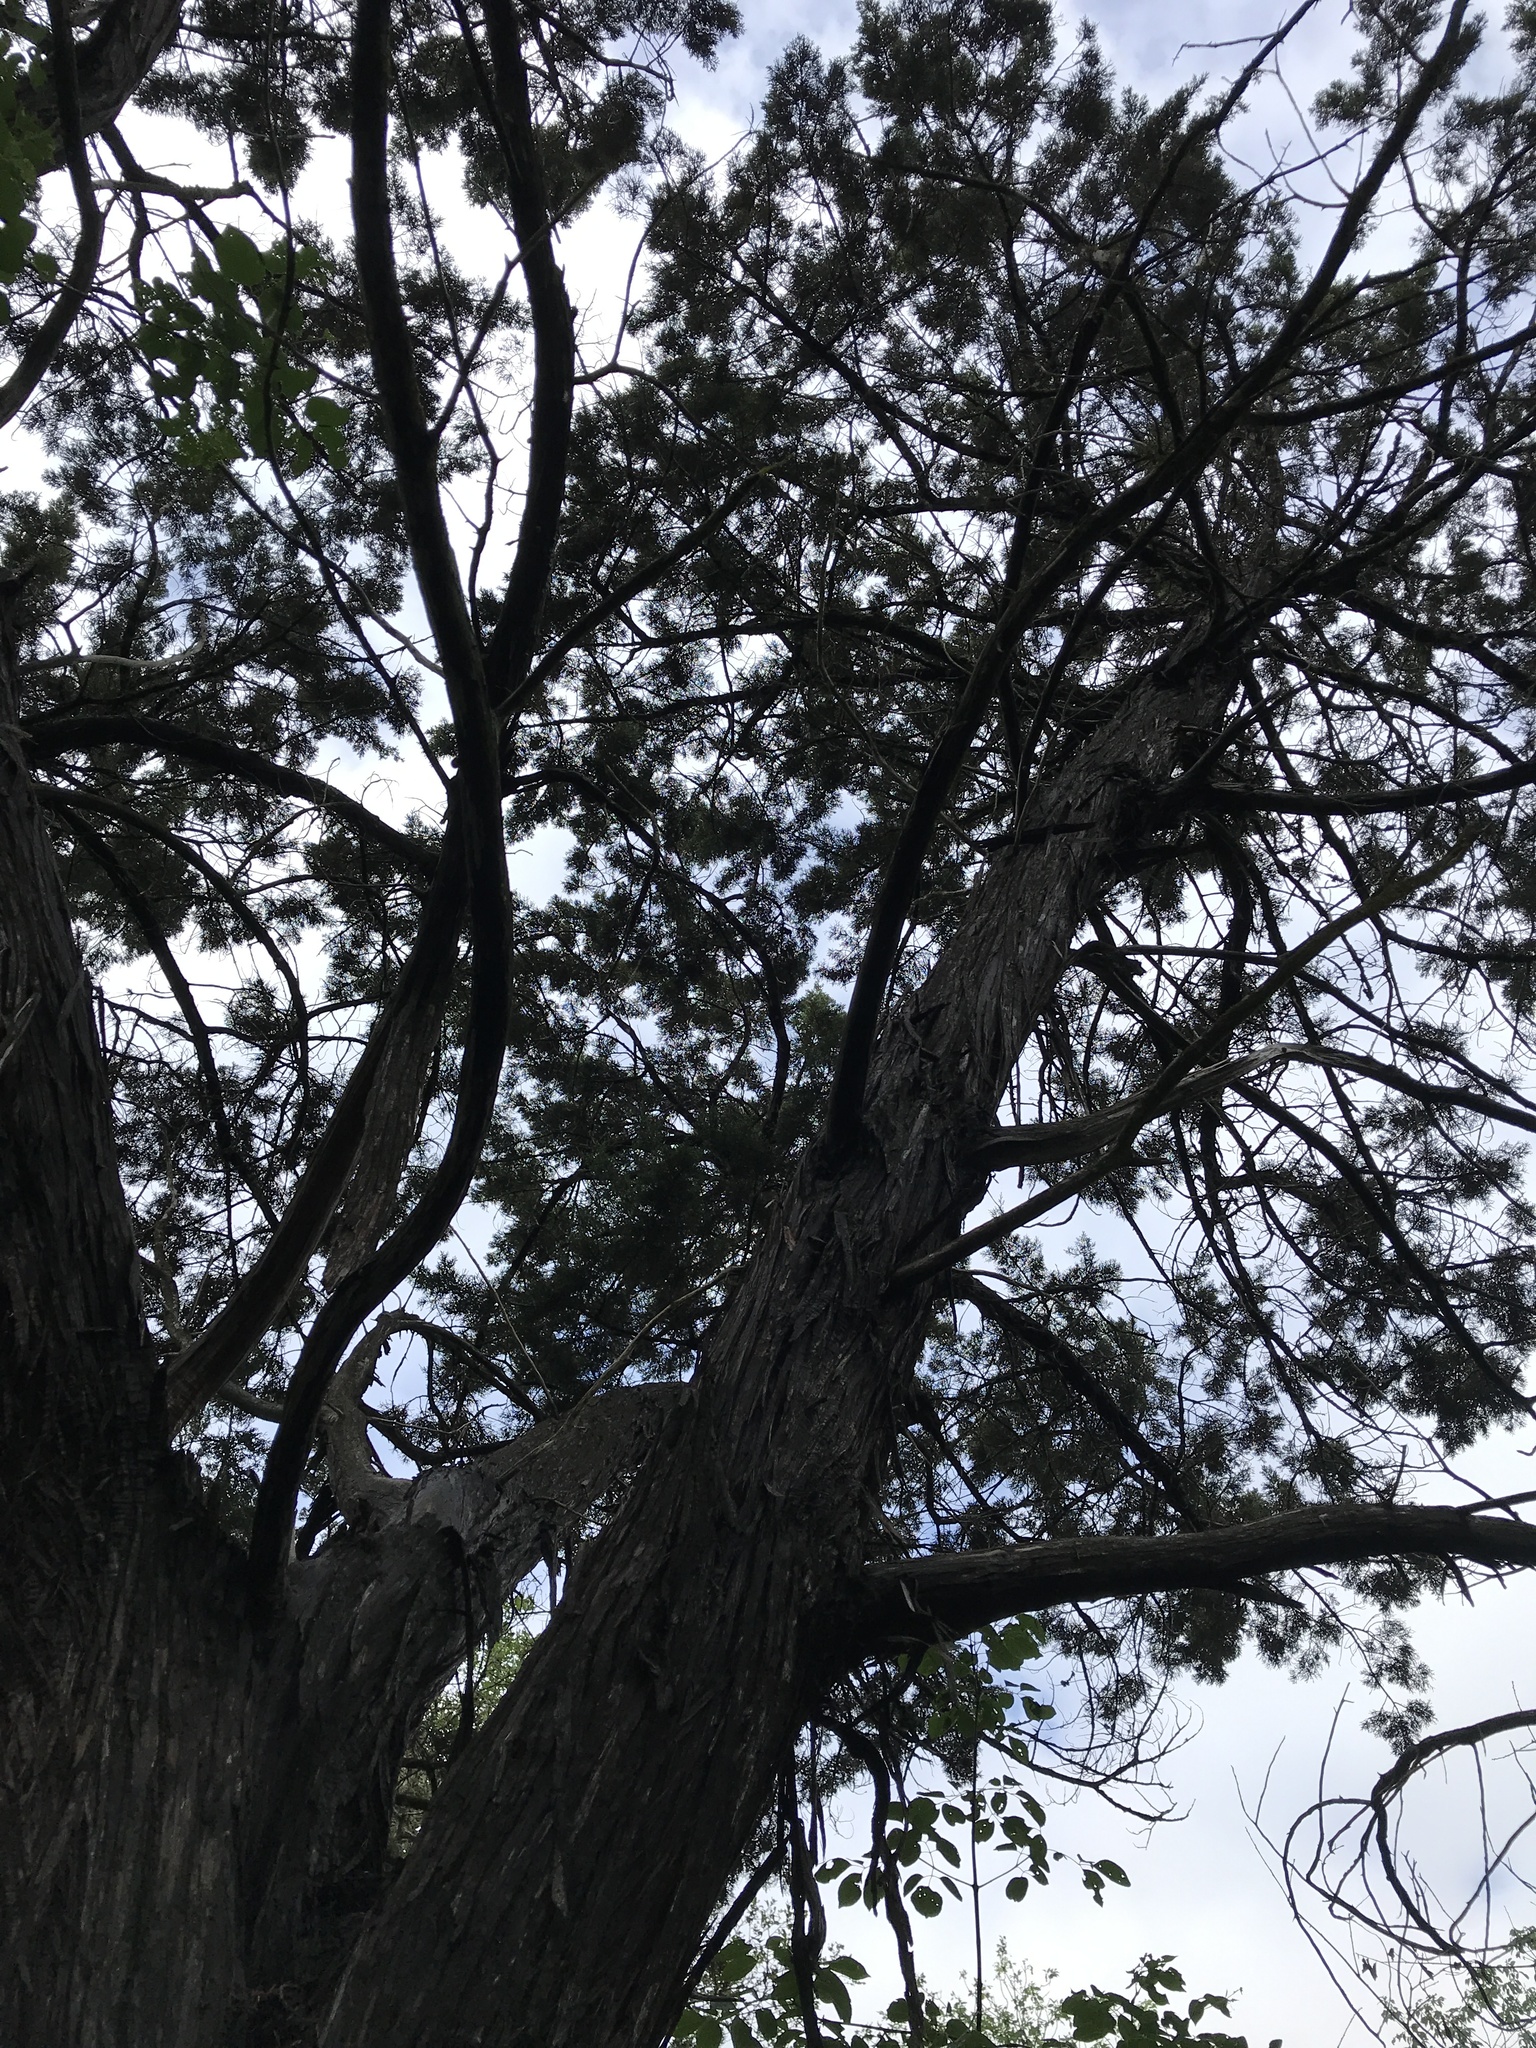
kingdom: Plantae
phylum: Tracheophyta
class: Pinopsida
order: Pinales
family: Cupressaceae
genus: Juniperus
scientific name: Juniperus ashei
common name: Mexican juniper
